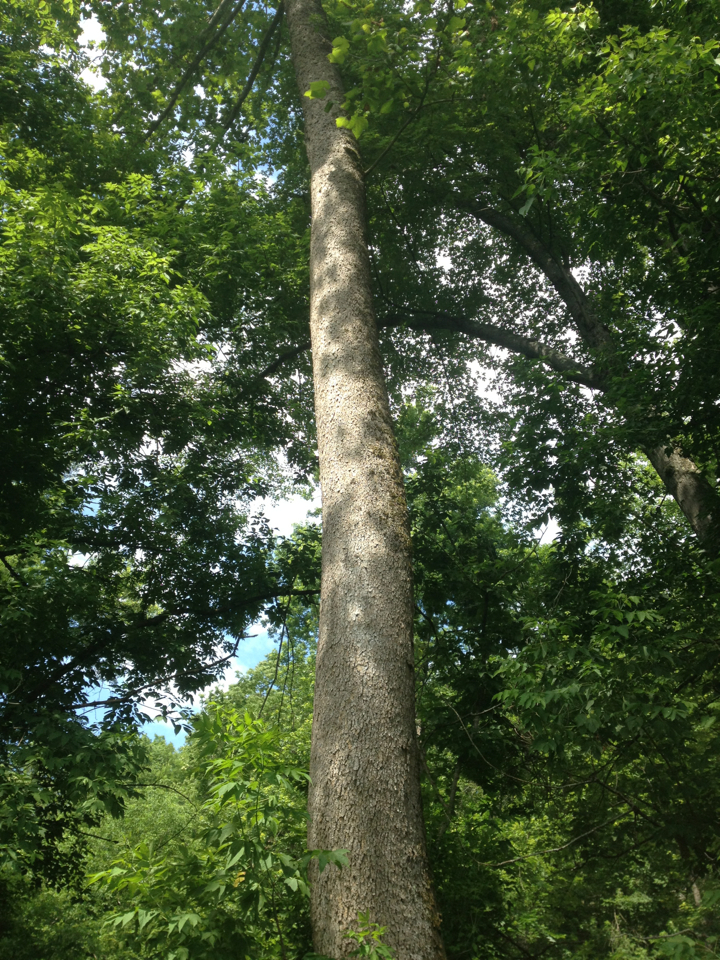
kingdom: Plantae
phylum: Tracheophyta
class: Magnoliopsida
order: Proteales
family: Platanaceae
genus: Platanus
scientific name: Platanus occidentalis
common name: American sycamore
